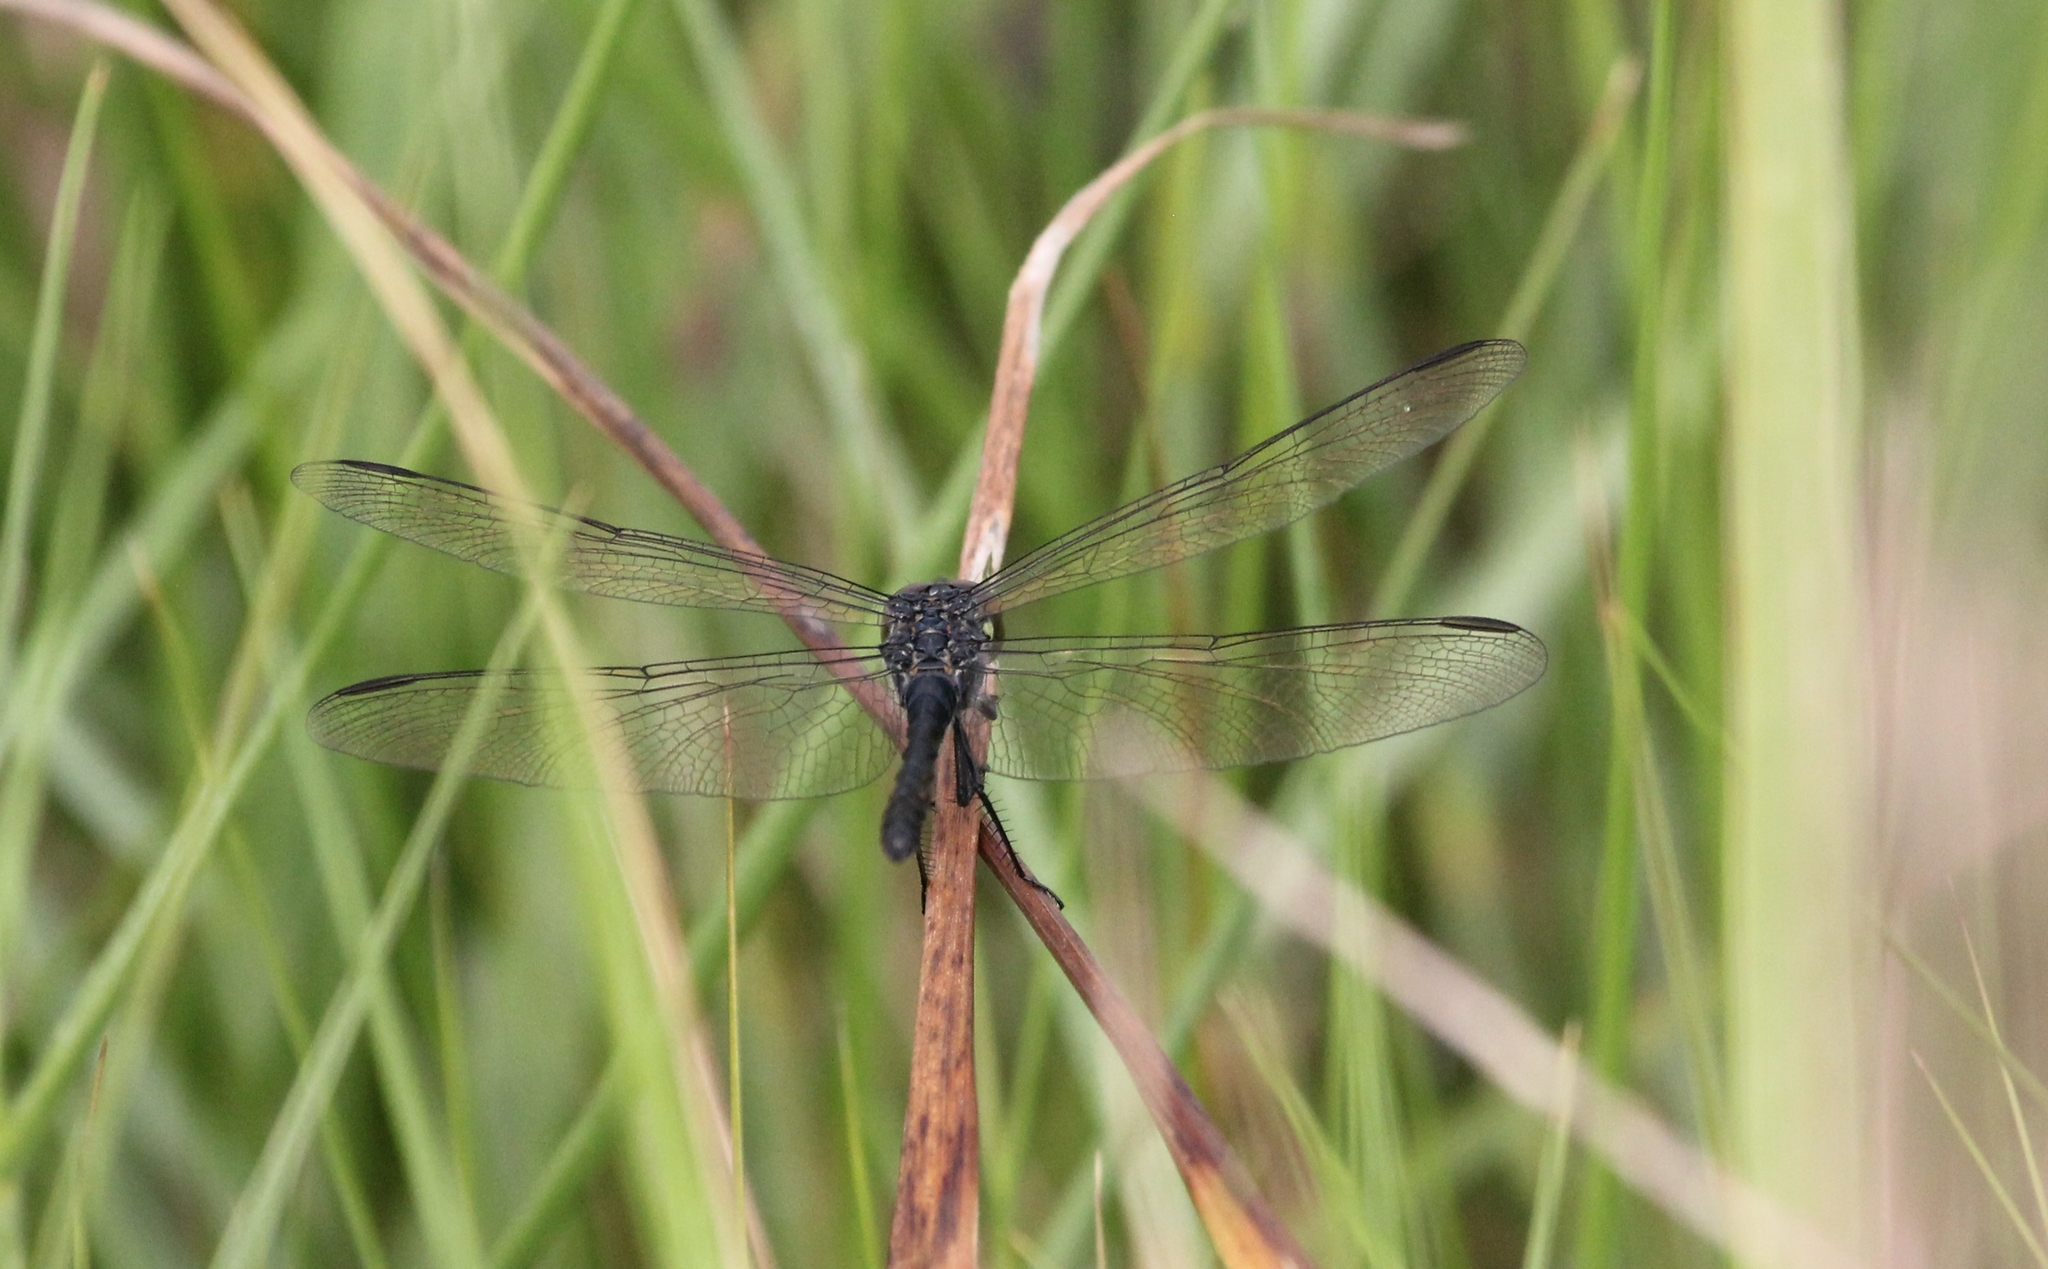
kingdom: Animalia
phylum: Arthropoda
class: Insecta
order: Odonata
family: Libellulidae
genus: Erythrodiplax
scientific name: Erythrodiplax berenice
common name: Seaside dragonlet
